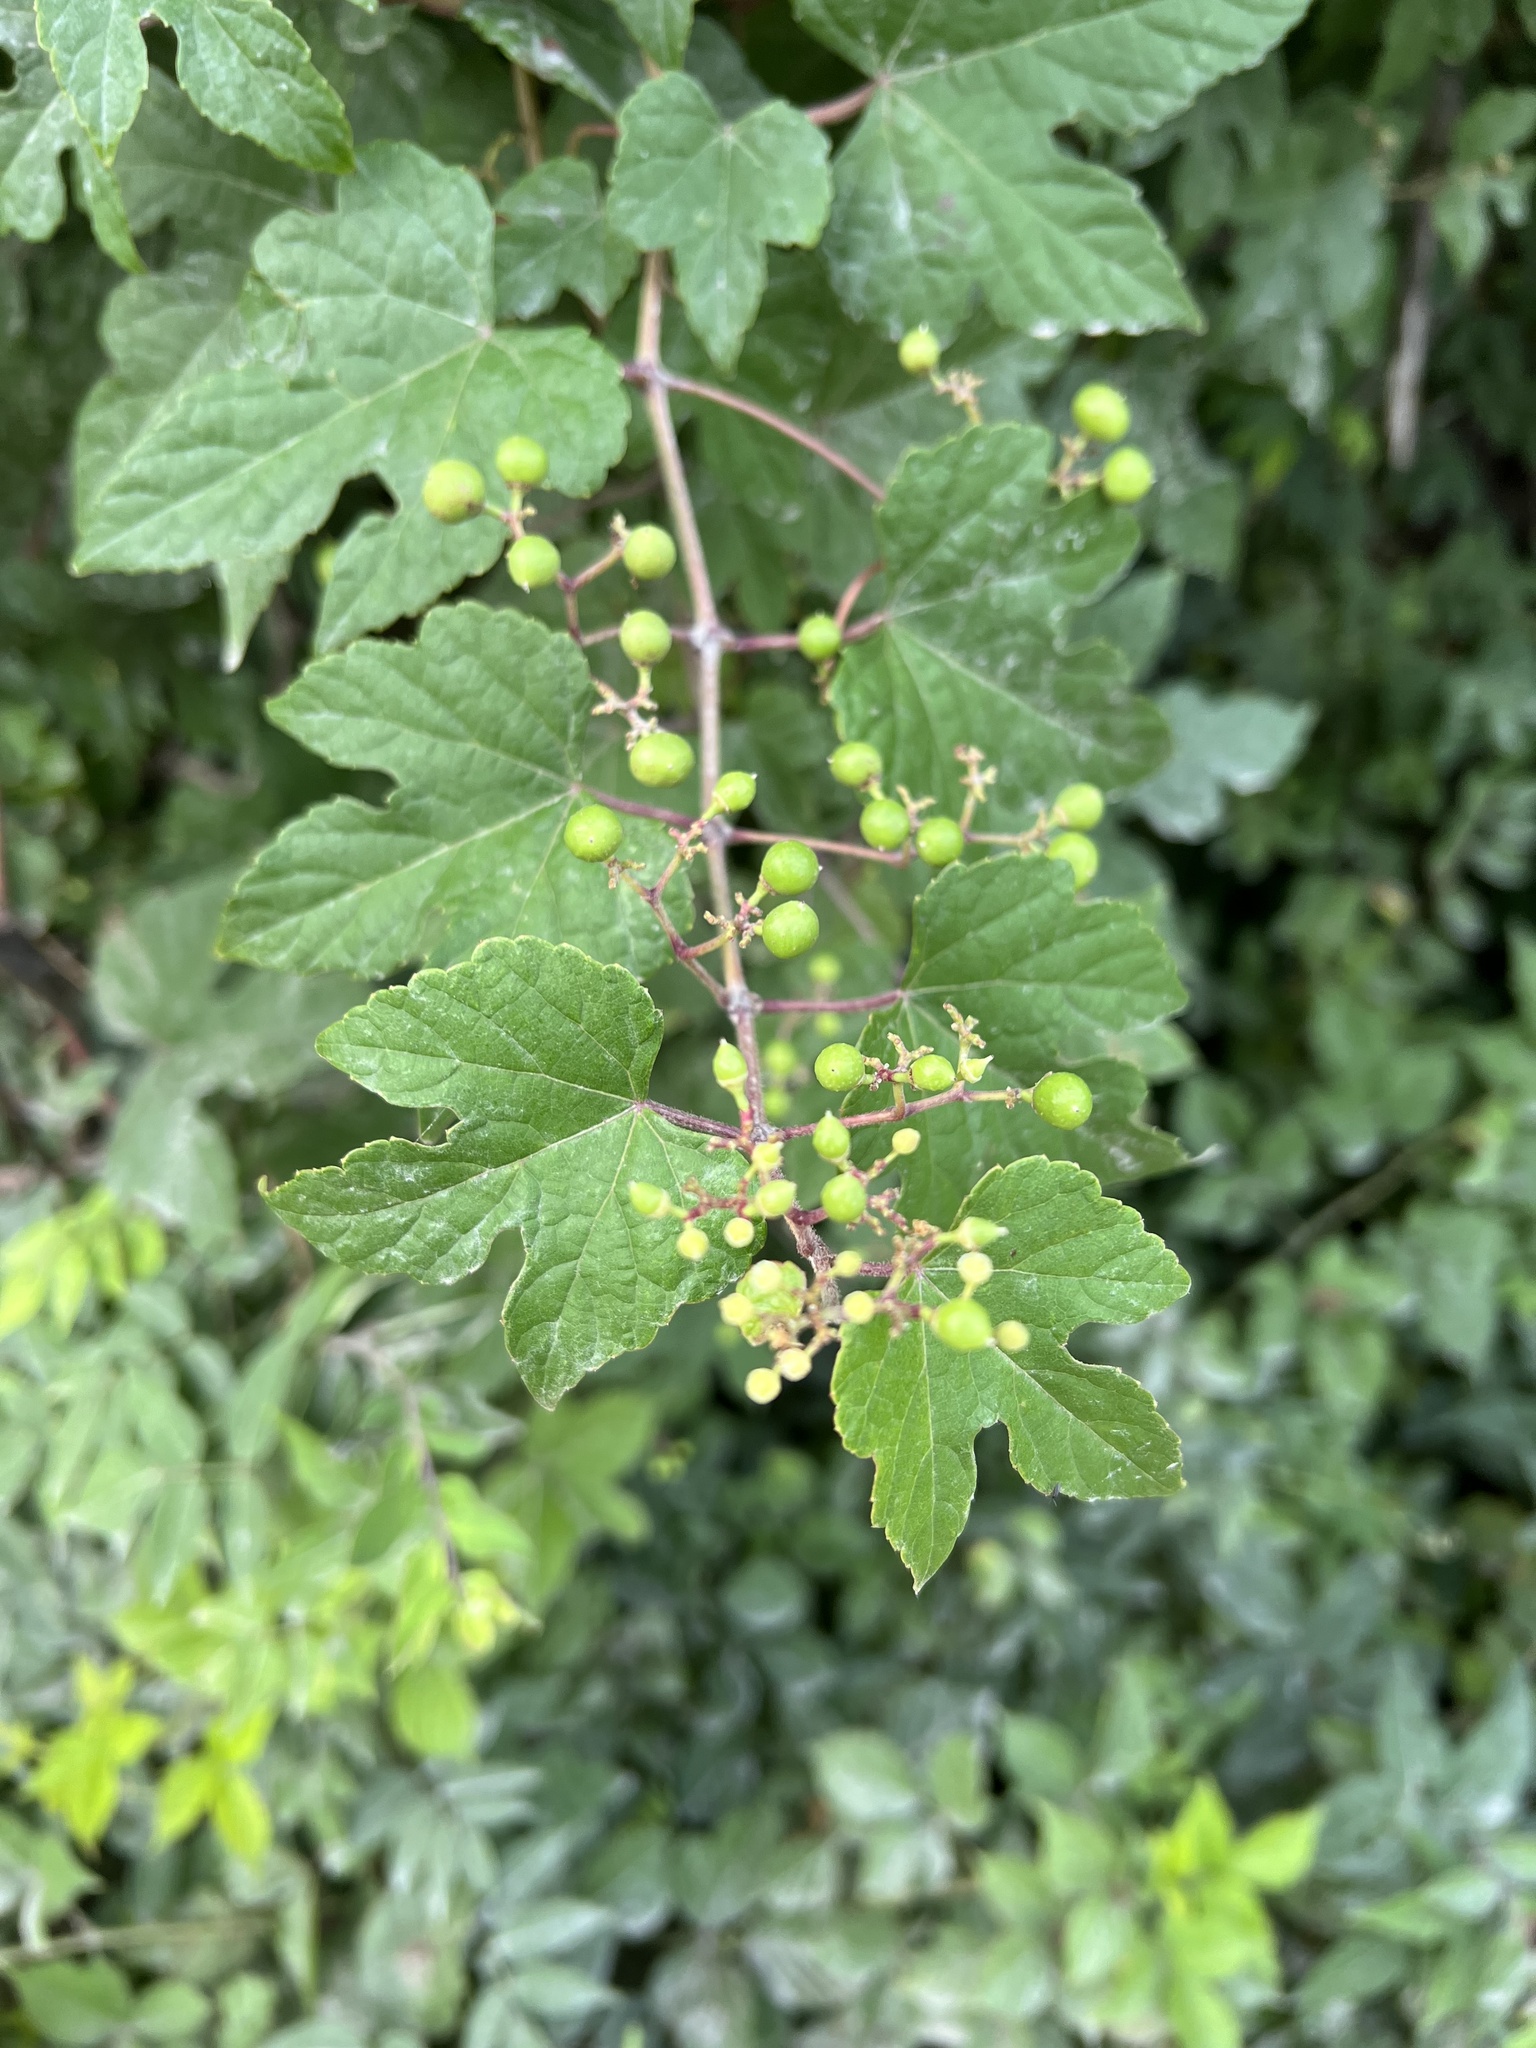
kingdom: Plantae
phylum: Tracheophyta
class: Magnoliopsida
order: Vitales
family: Vitaceae
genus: Ampelopsis
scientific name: Ampelopsis glandulosa
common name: Amur peppervine
